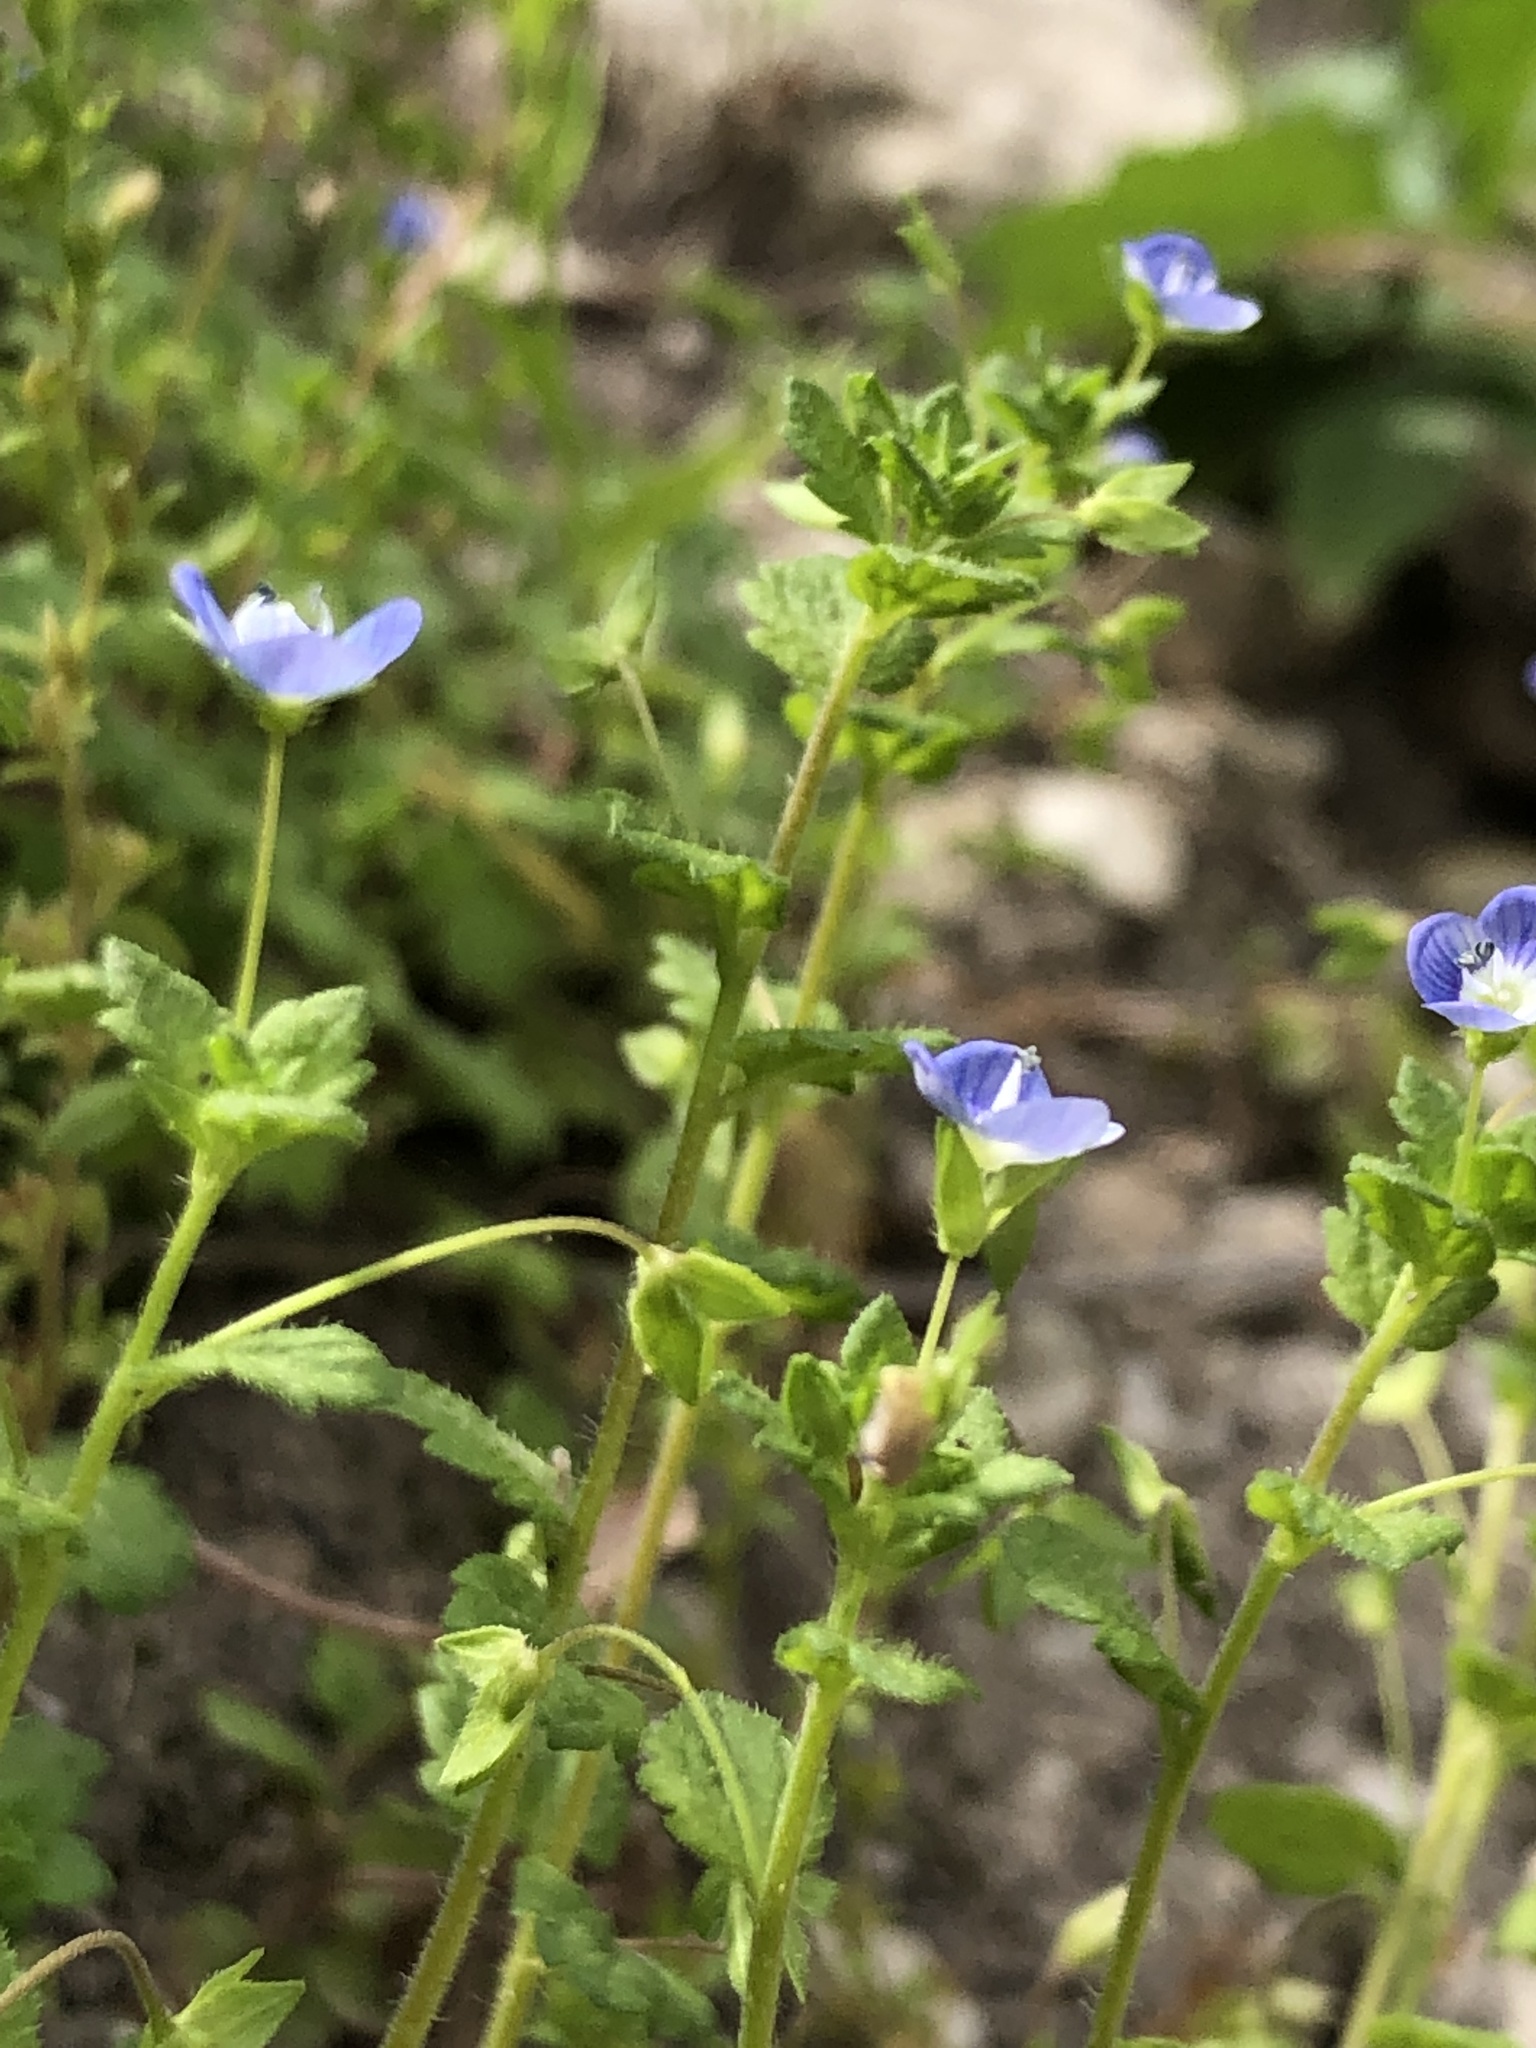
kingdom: Plantae
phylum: Tracheophyta
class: Magnoliopsida
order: Lamiales
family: Plantaginaceae
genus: Veronica
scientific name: Veronica persica
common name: Common field-speedwell
